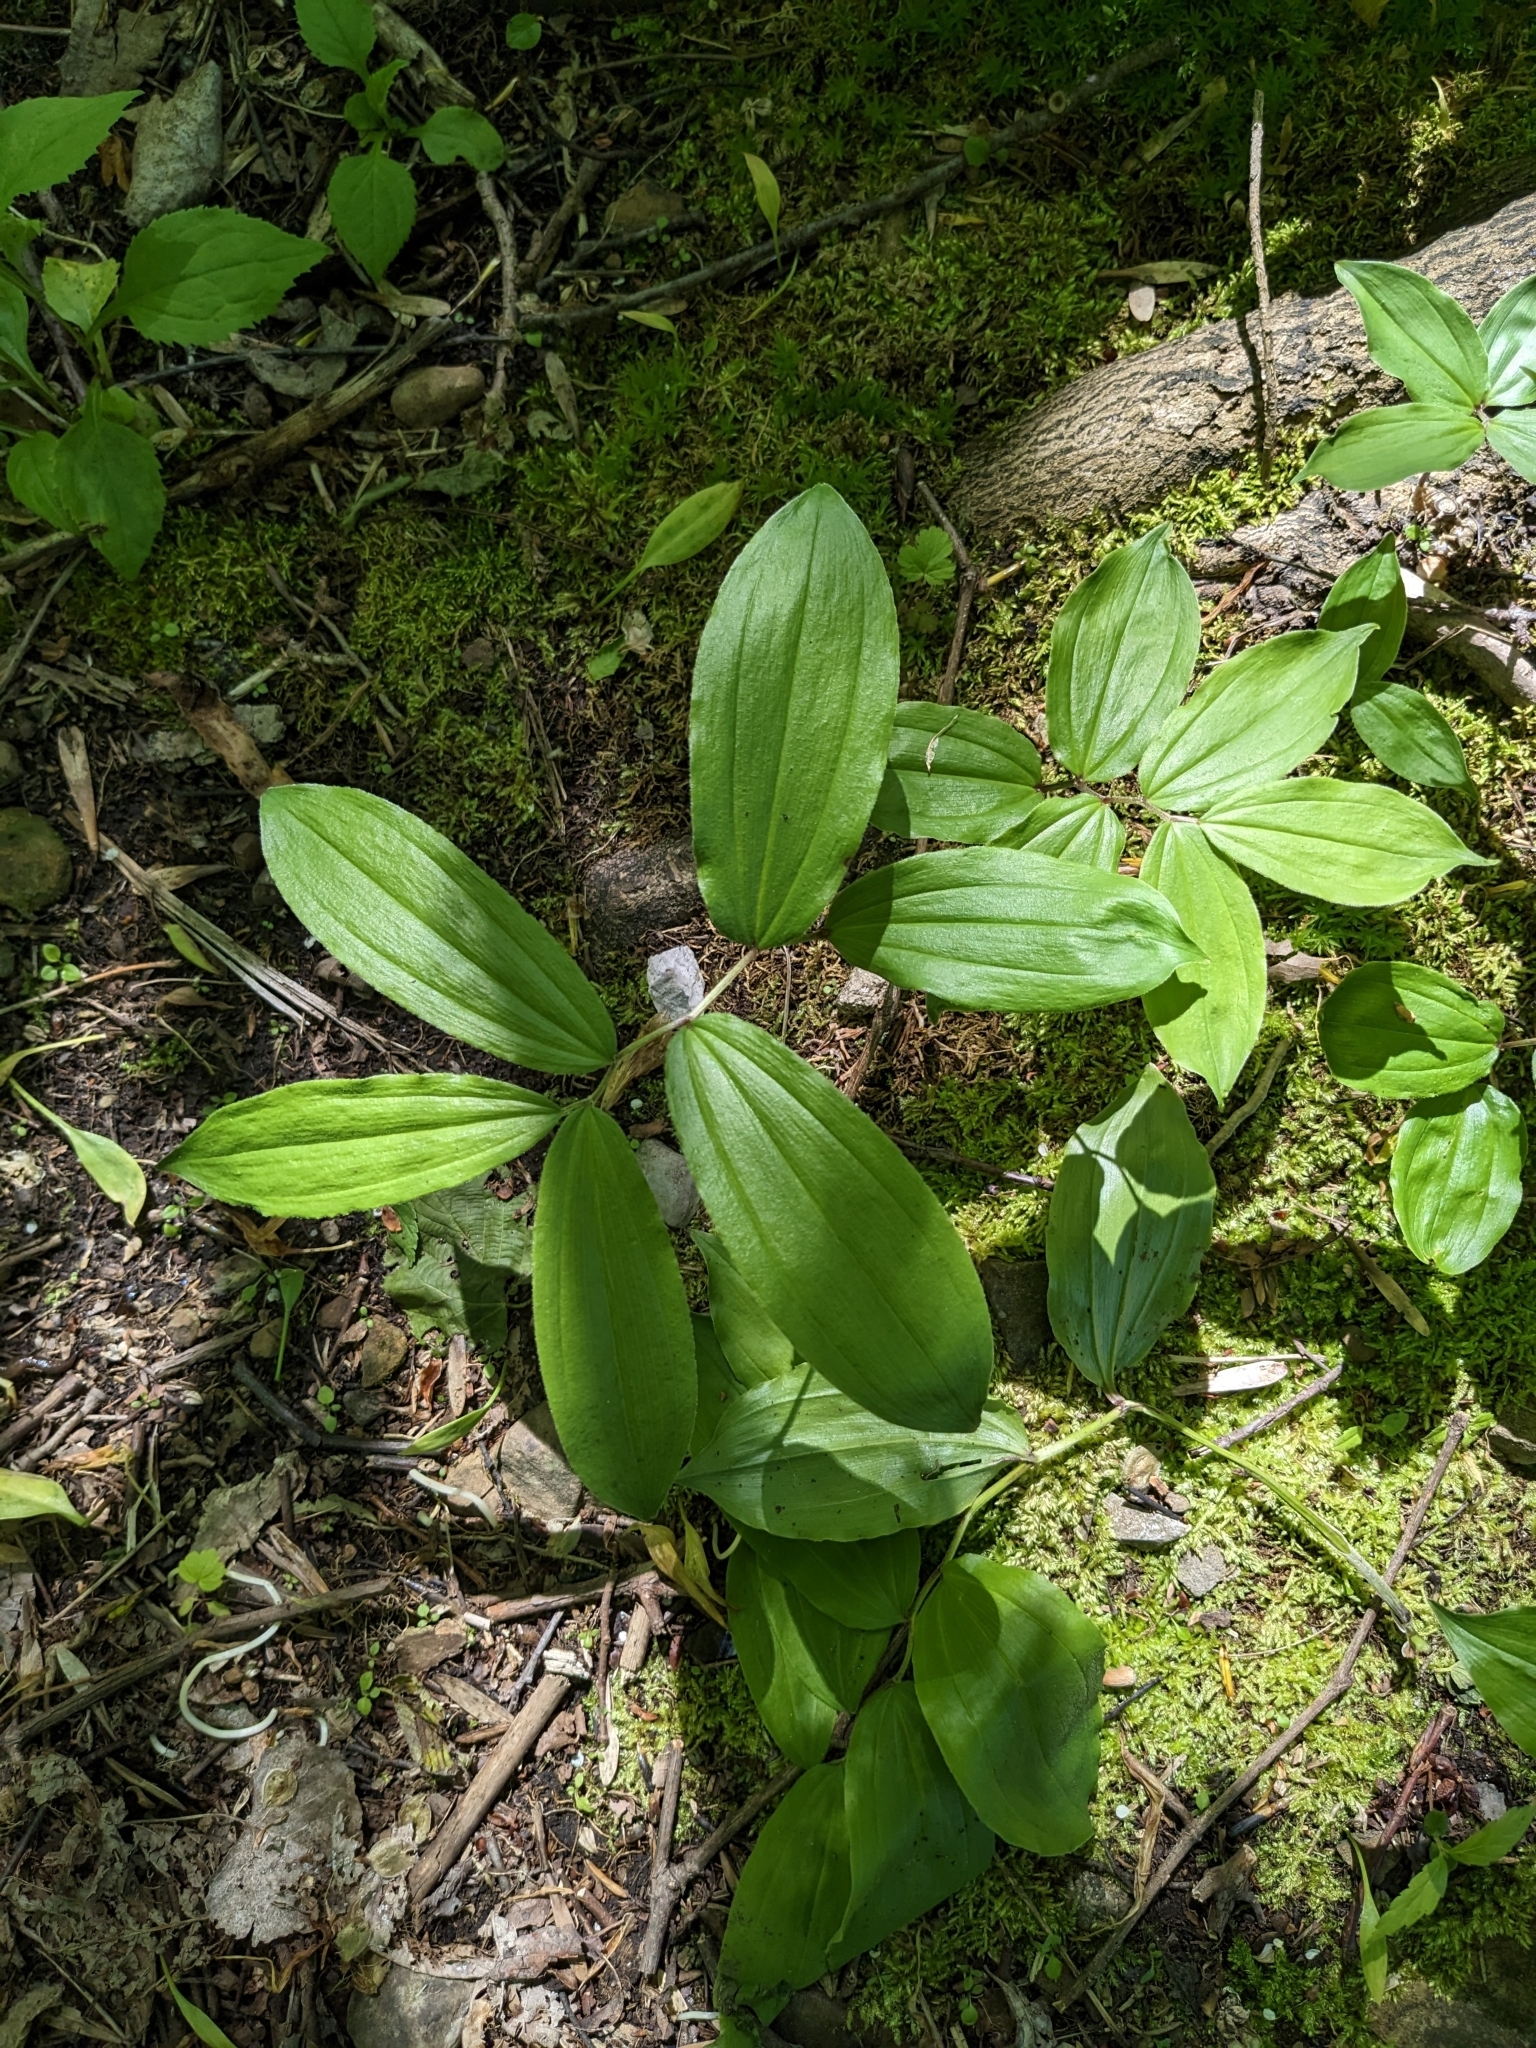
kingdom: Plantae
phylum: Tracheophyta
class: Liliopsida
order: Asparagales
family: Asparagaceae
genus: Maianthemum
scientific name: Maianthemum racemosum
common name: False spikenard
